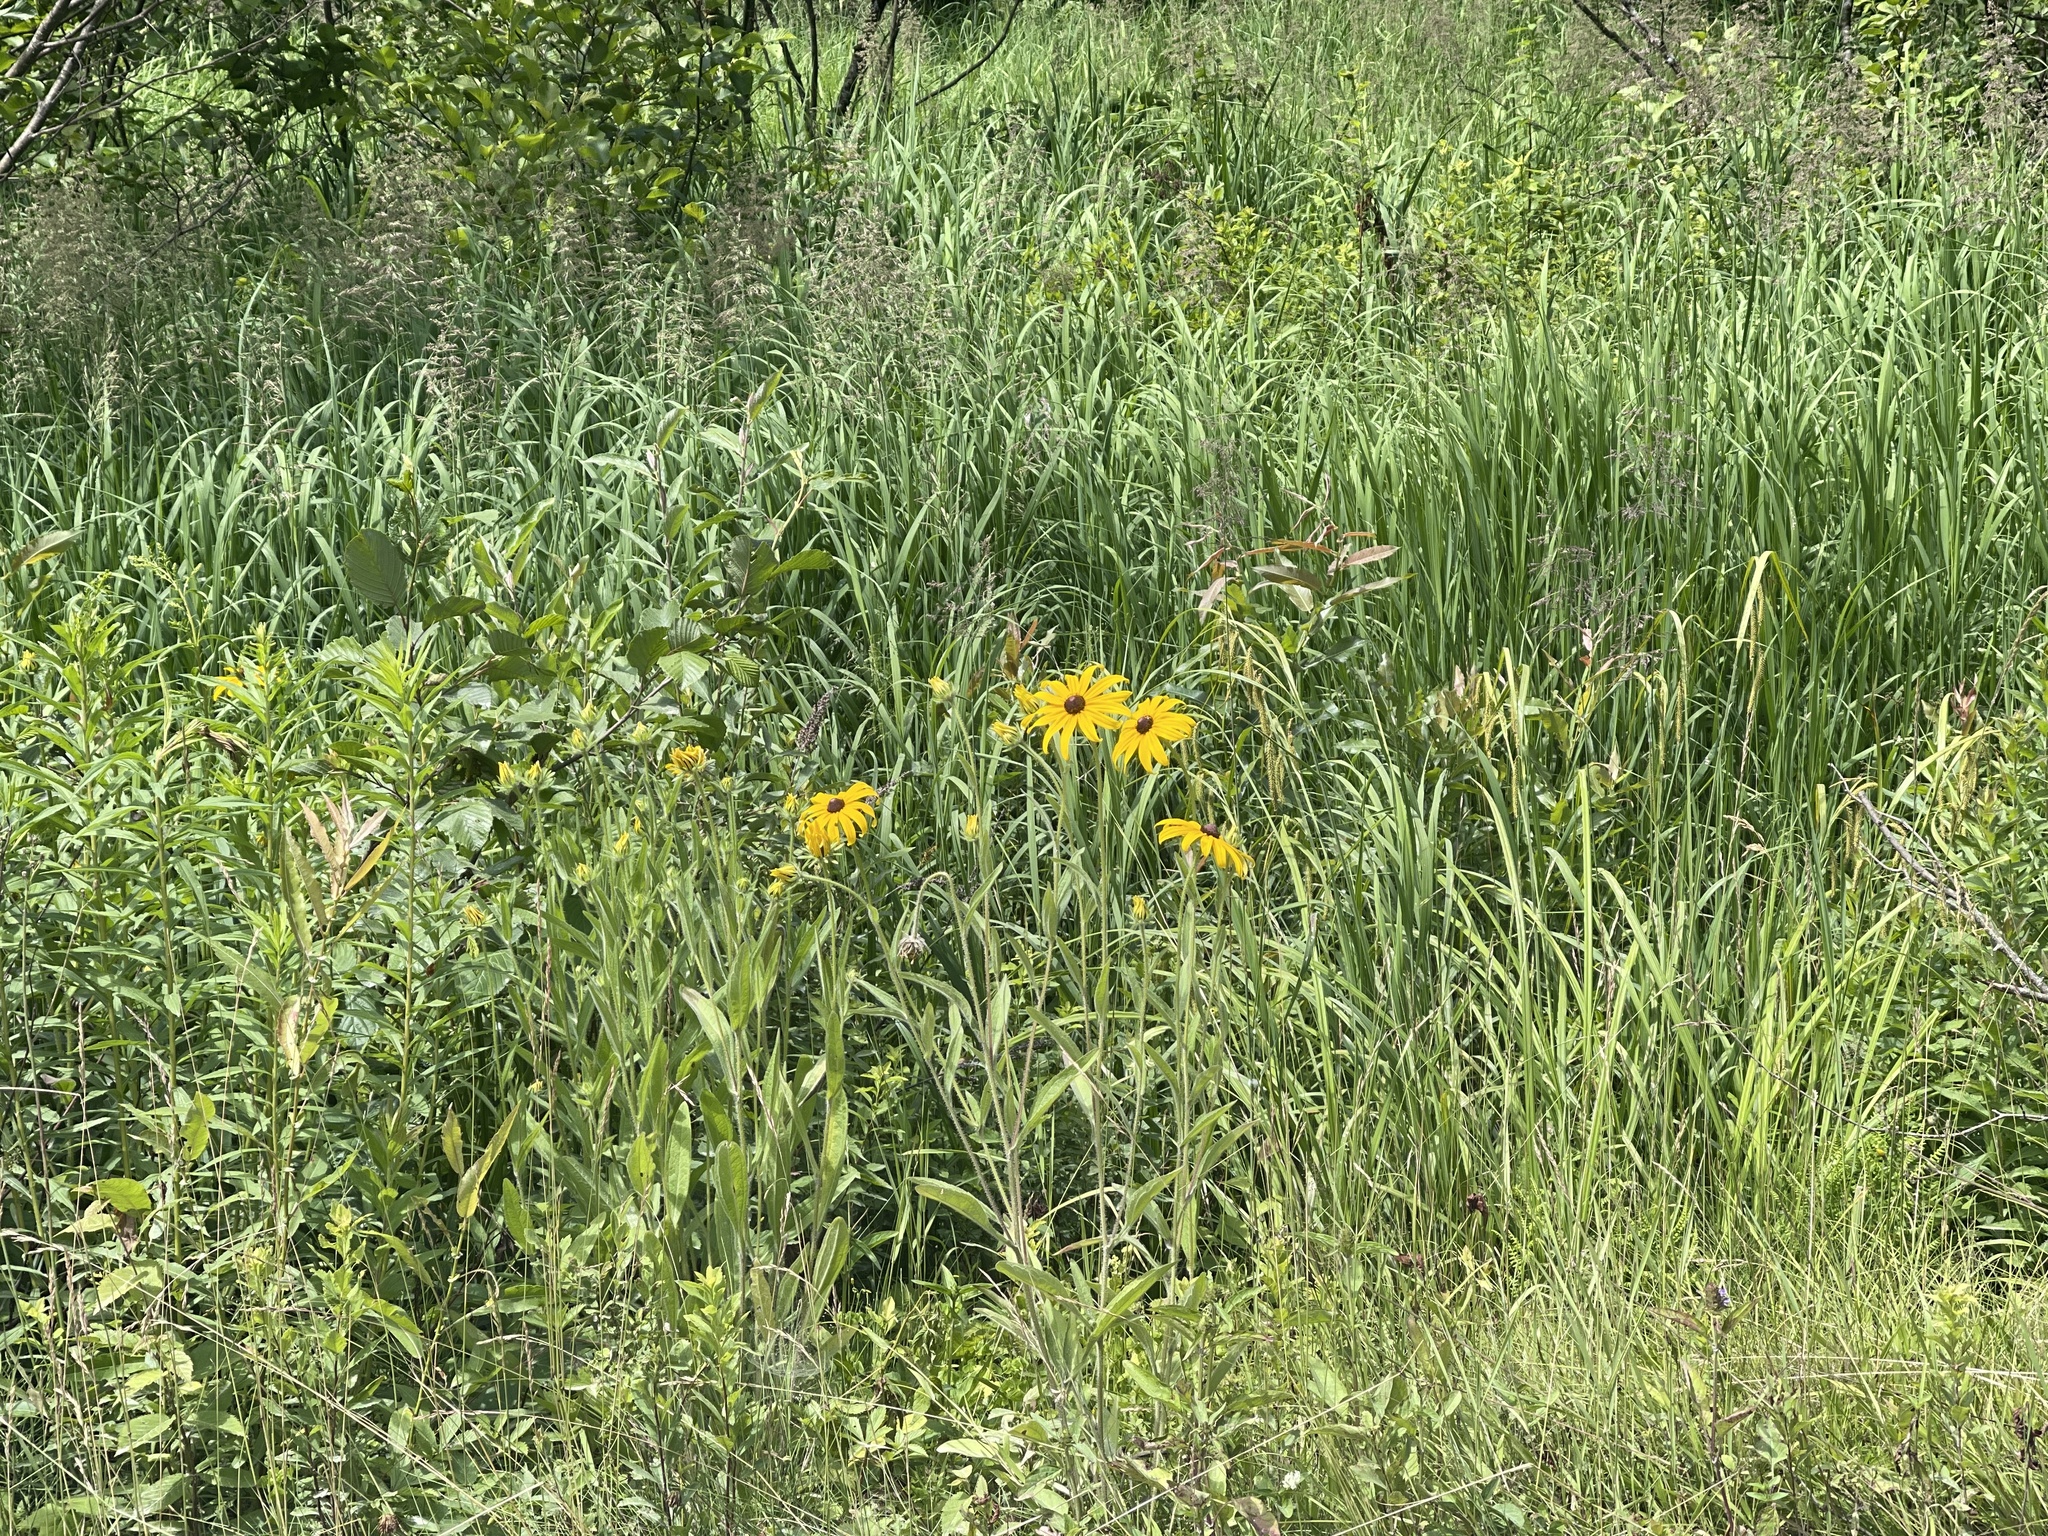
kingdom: Plantae
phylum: Tracheophyta
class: Magnoliopsida
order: Asterales
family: Asteraceae
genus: Rudbeckia
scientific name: Rudbeckia hirta
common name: Black-eyed-susan
